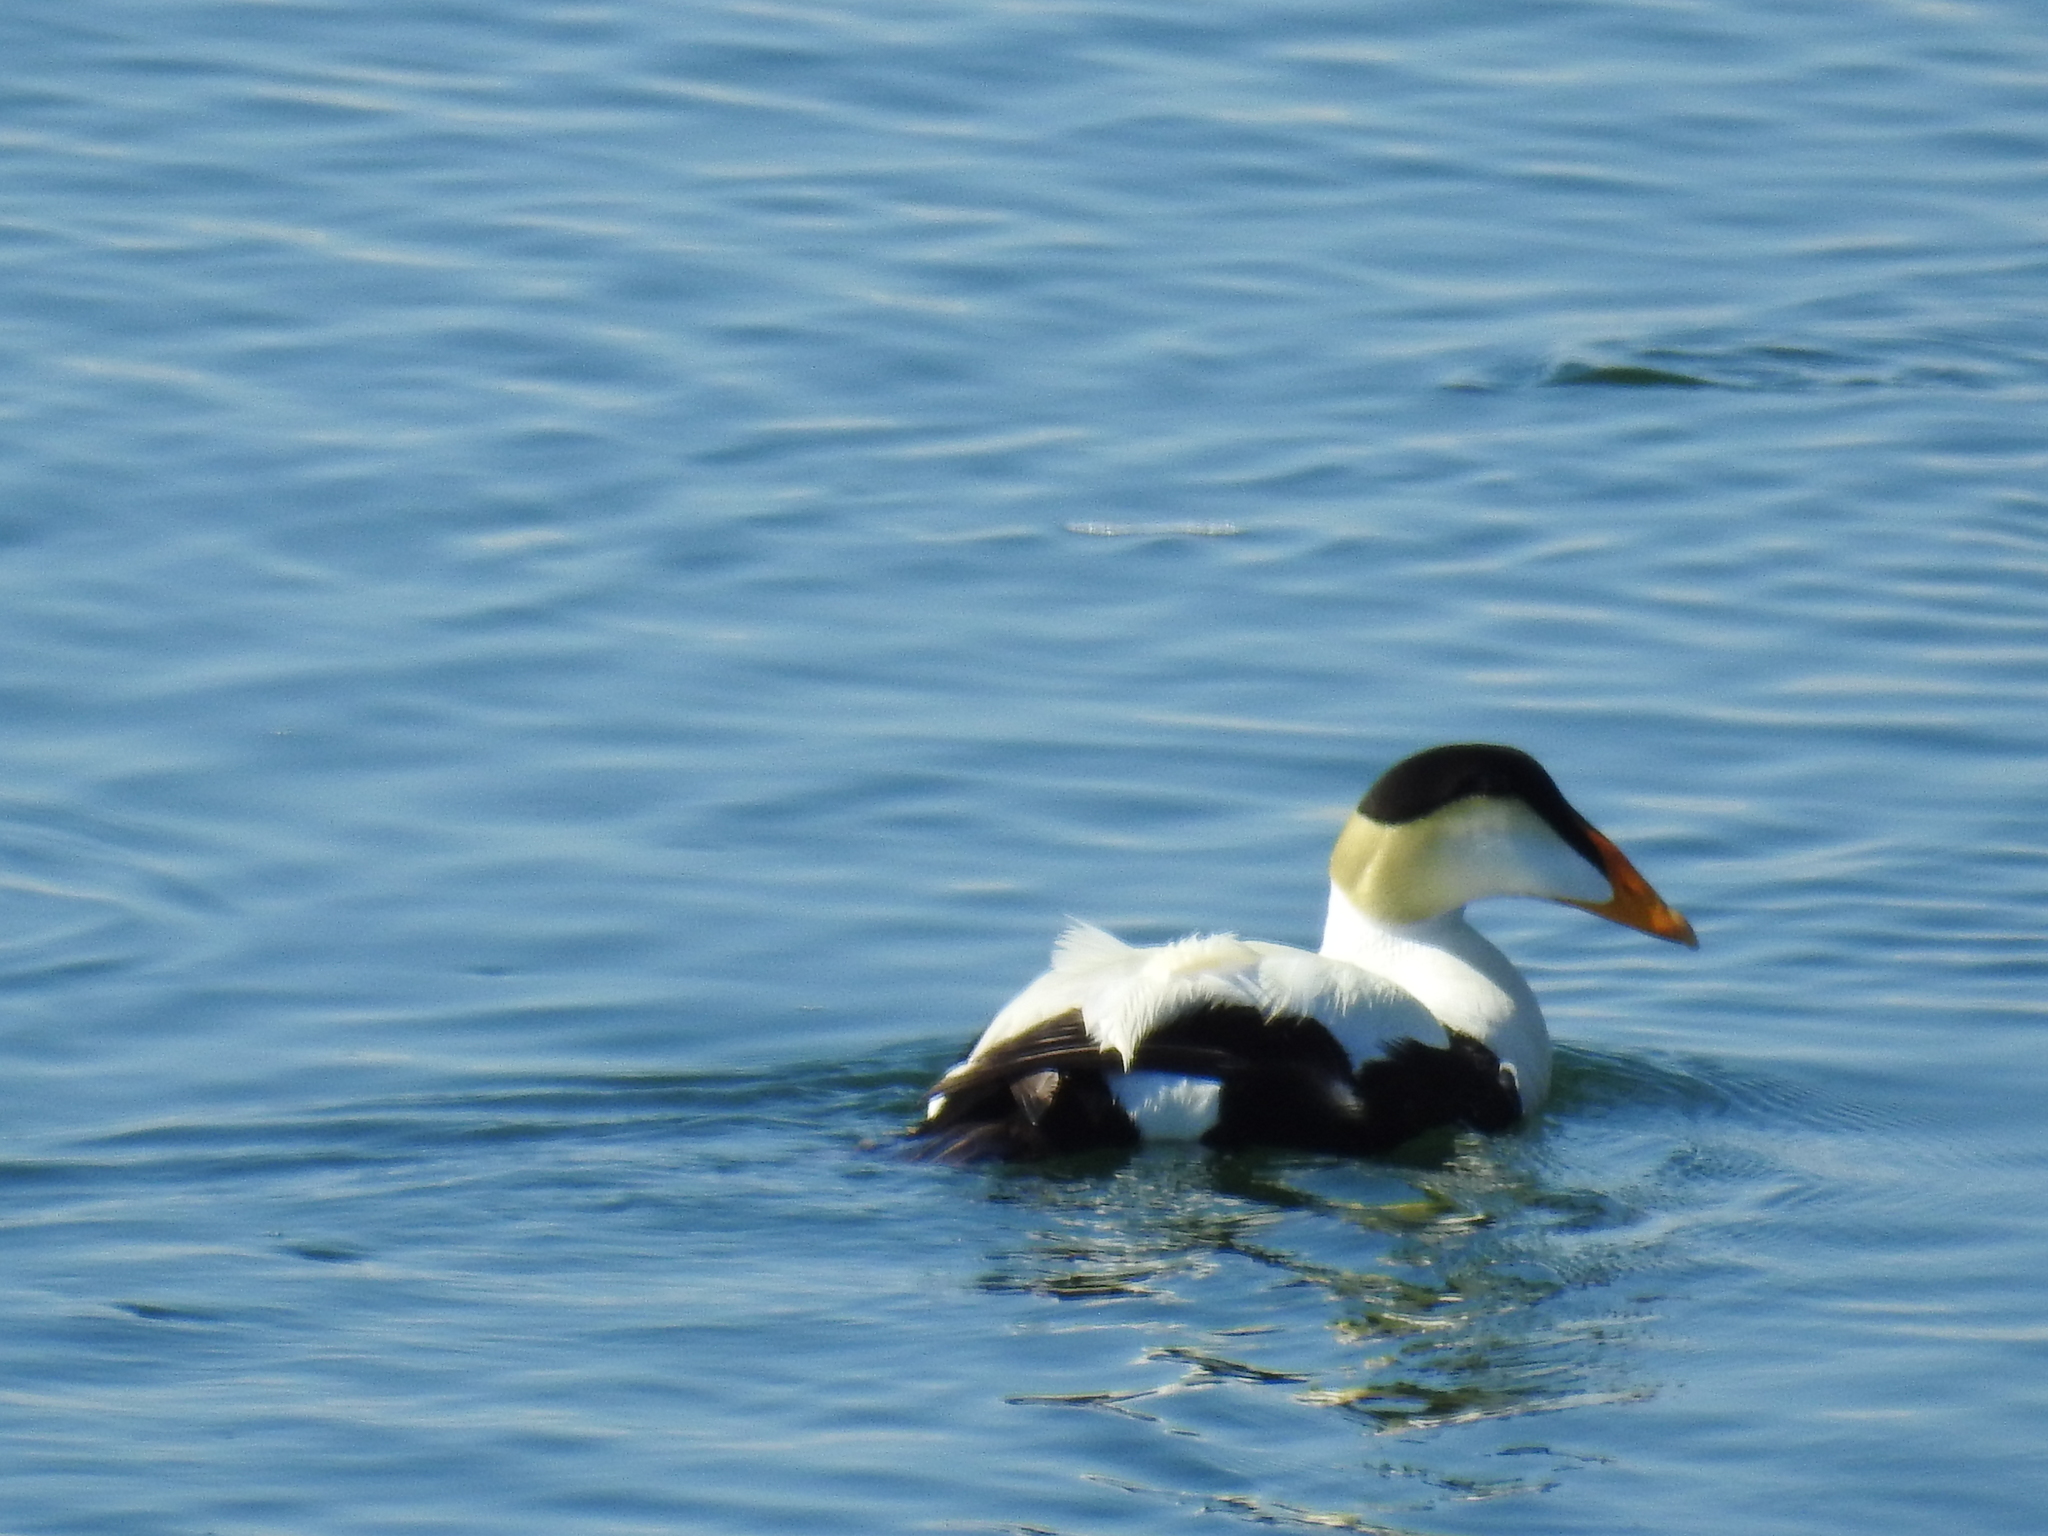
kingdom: Animalia
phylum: Chordata
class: Aves
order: Anseriformes
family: Anatidae
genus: Somateria
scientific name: Somateria mollissima
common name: Common eider
